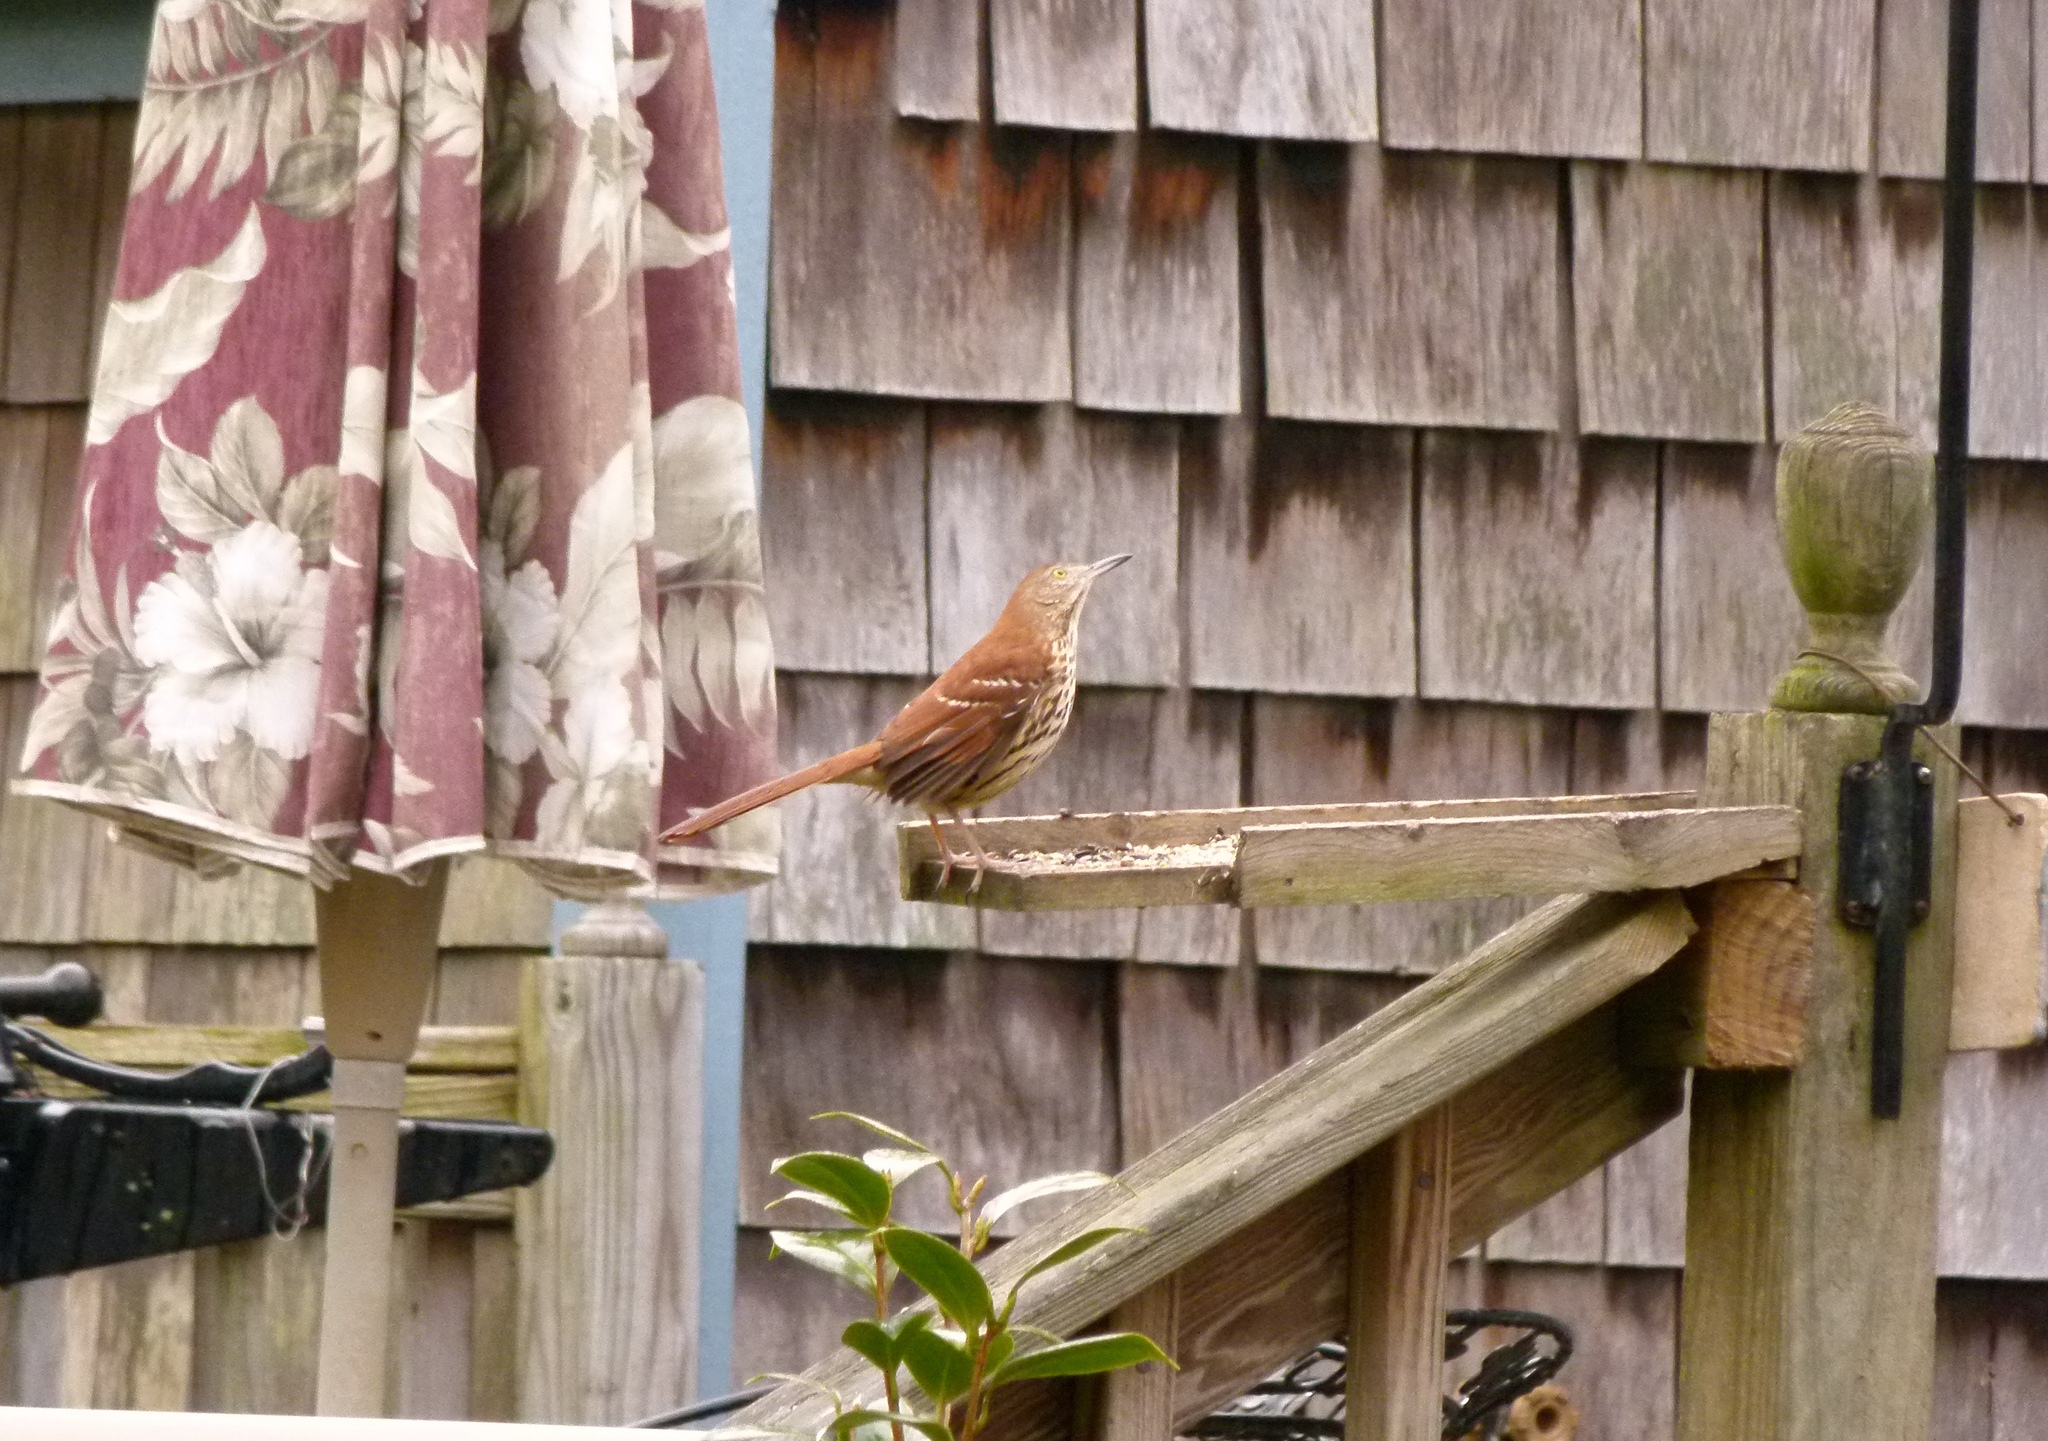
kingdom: Animalia
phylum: Chordata
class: Aves
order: Passeriformes
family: Mimidae
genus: Toxostoma
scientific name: Toxostoma rufum
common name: Brown thrasher
